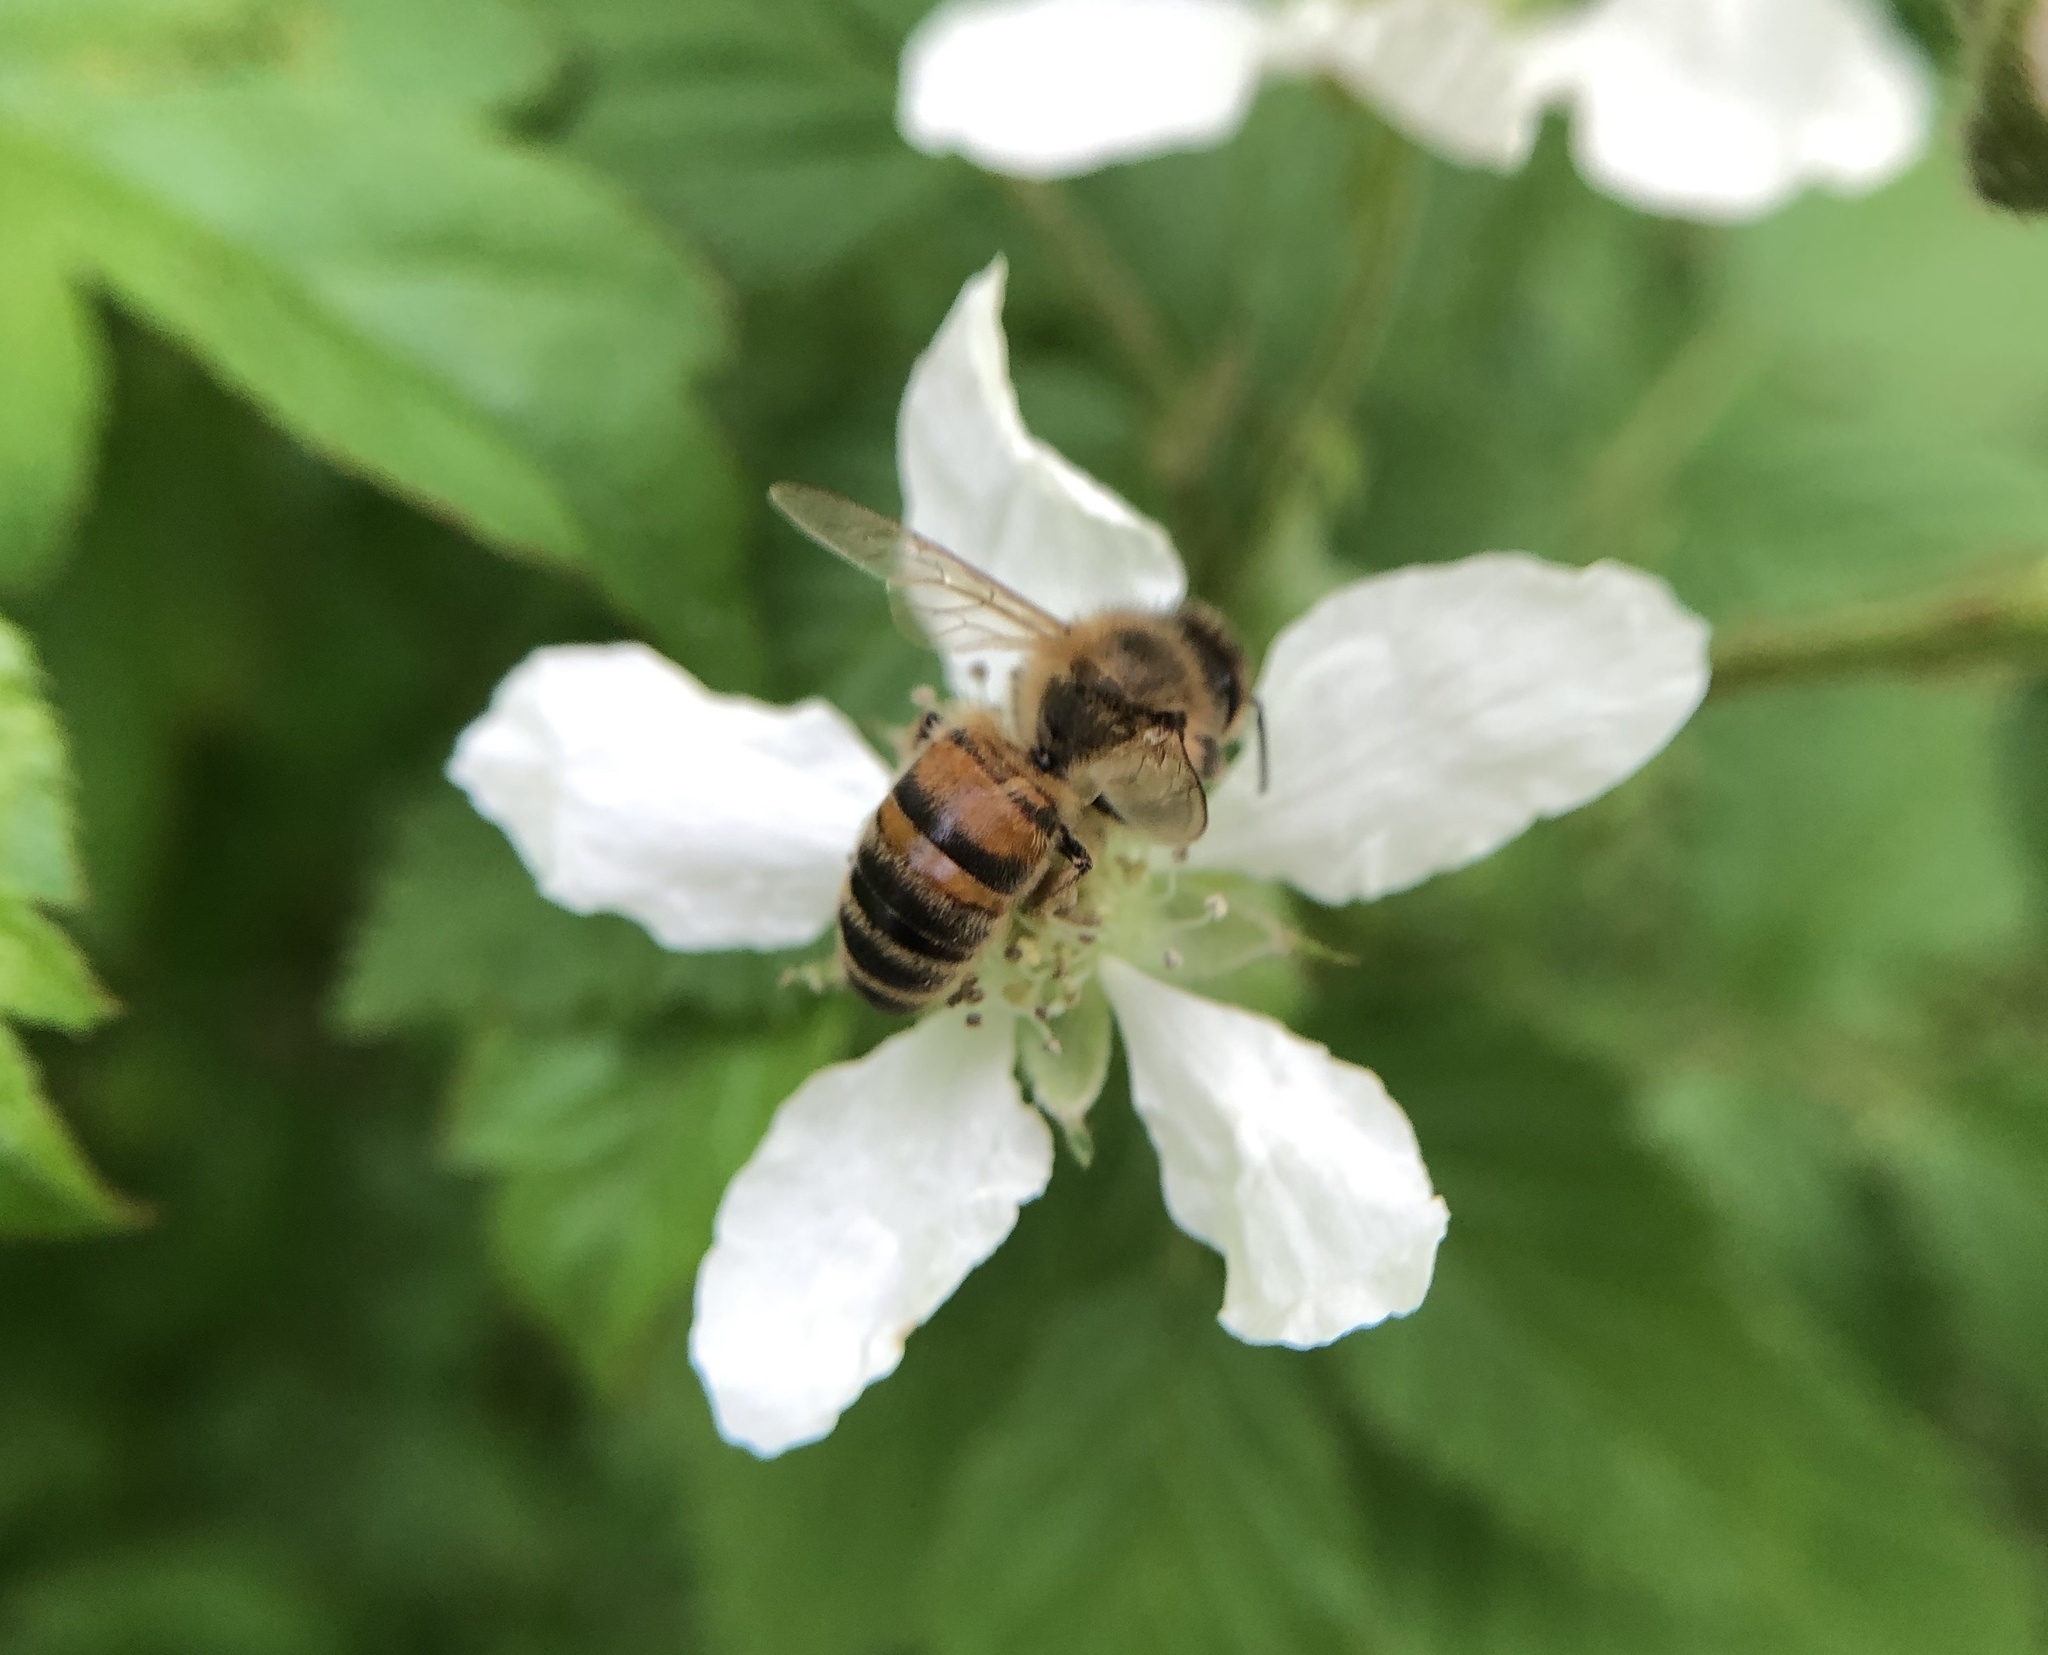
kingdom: Animalia
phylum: Arthropoda
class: Insecta
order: Hymenoptera
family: Apidae
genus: Apis
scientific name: Apis mellifera
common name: Honey bee
